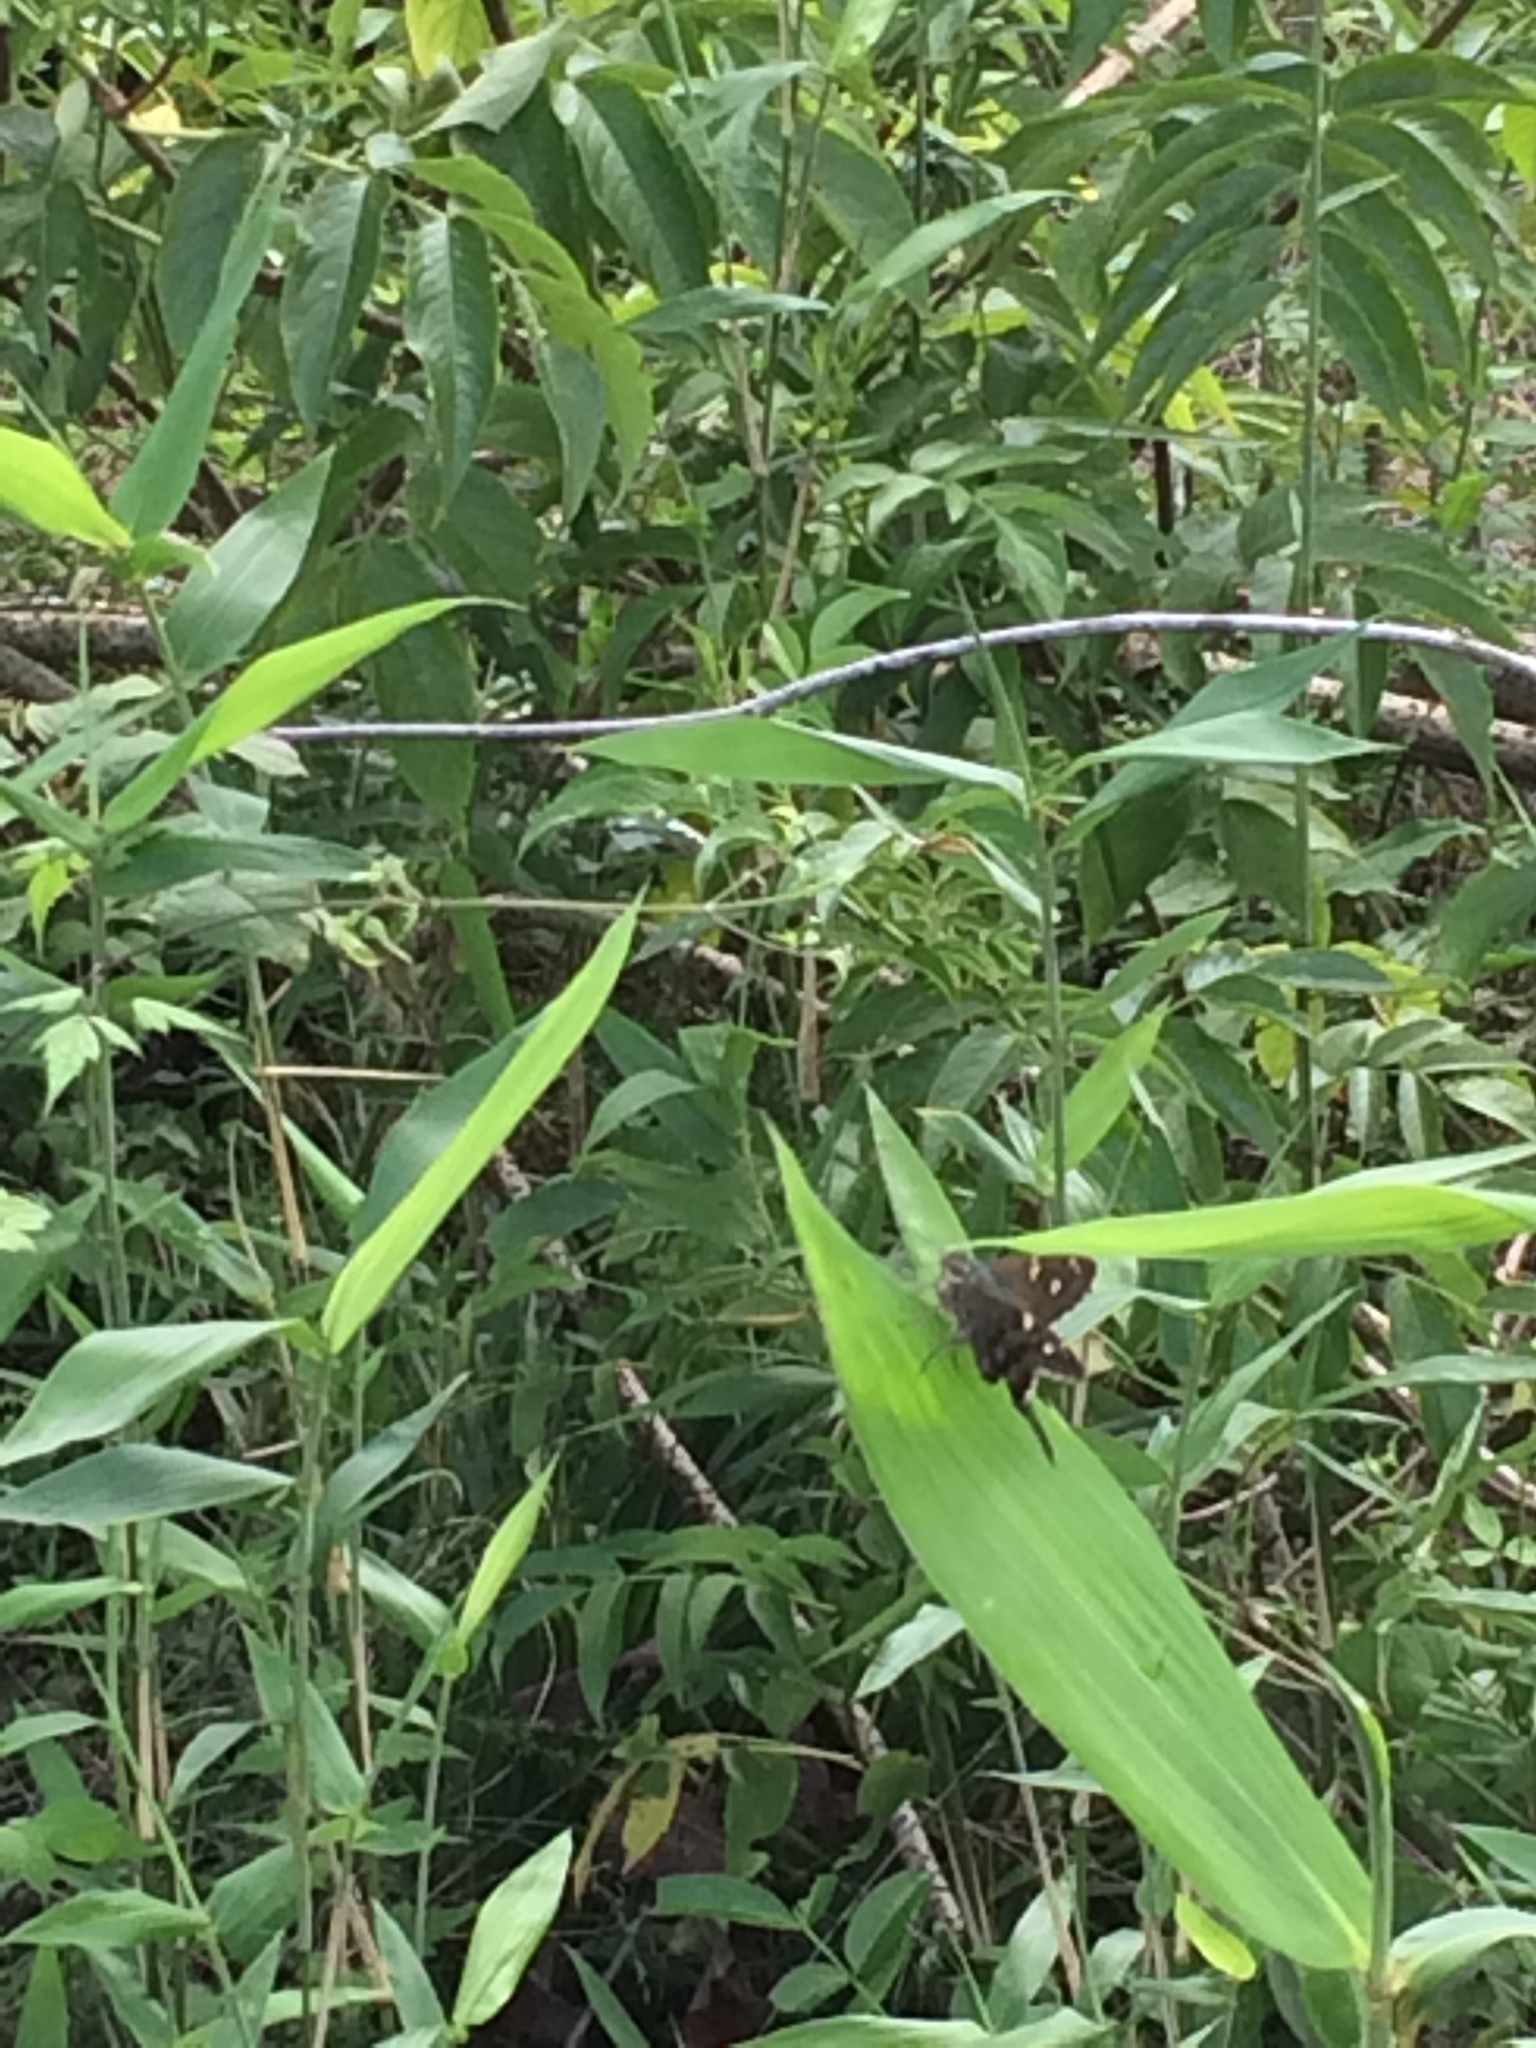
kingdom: Animalia
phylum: Arthropoda
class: Insecta
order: Lepidoptera
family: Hesperiidae
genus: Urbanus
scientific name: Urbanus proteus
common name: Long-tailed skipper
